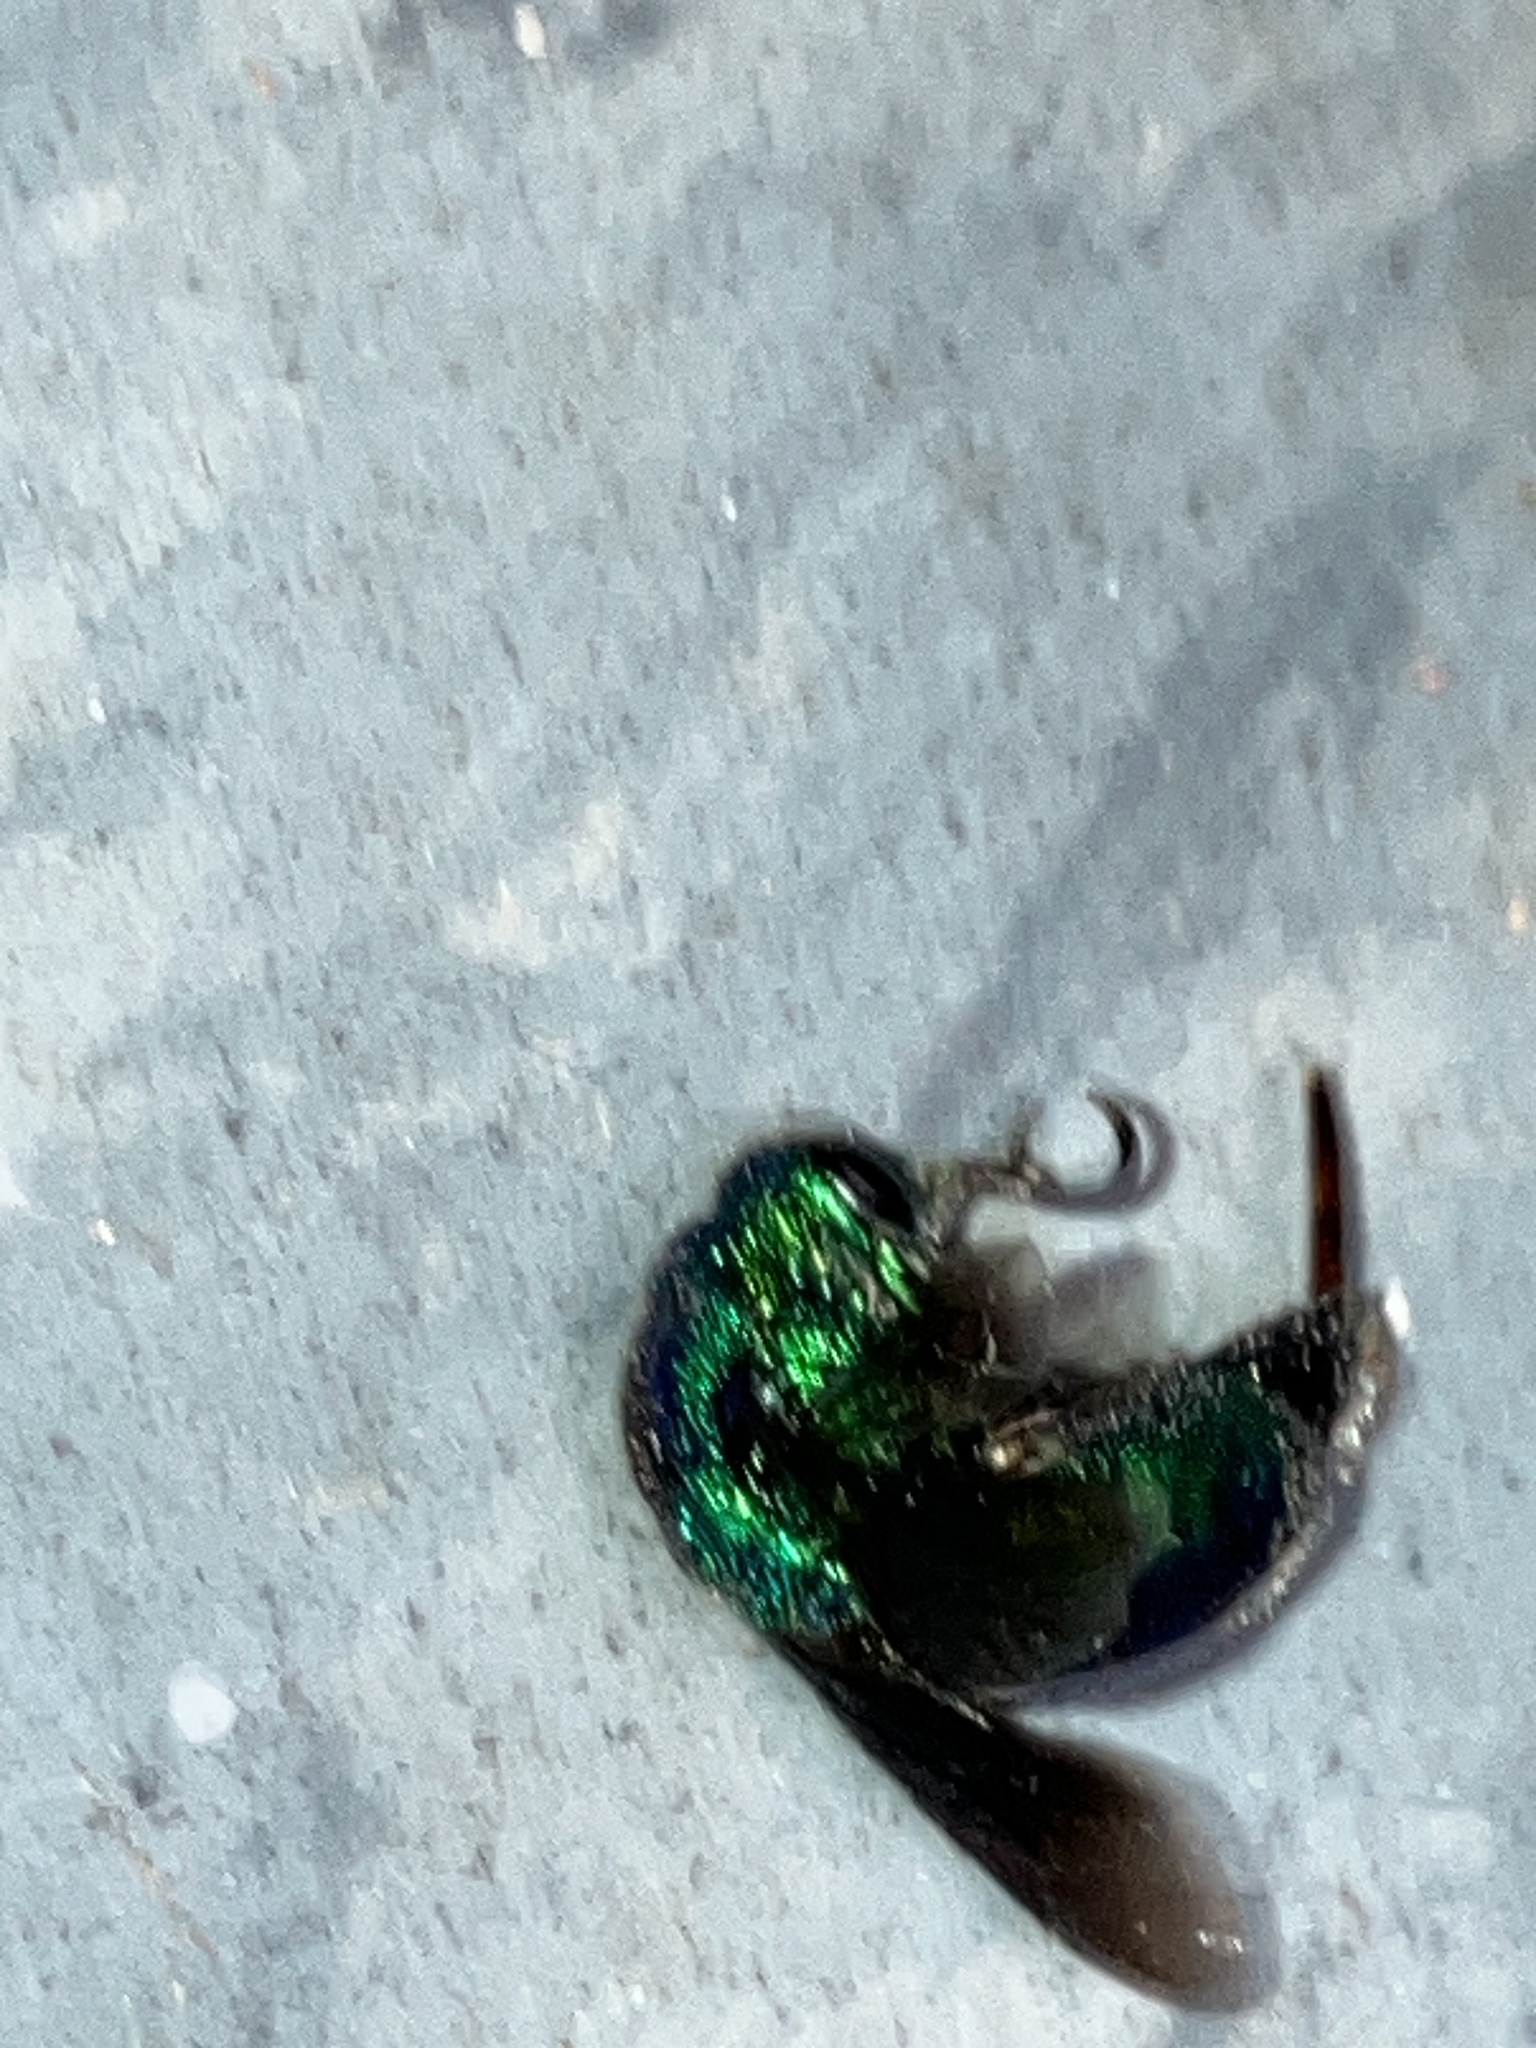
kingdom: Animalia
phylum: Arthropoda
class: Insecta
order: Hymenoptera
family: Chrysididae
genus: Chrysis
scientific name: Chrysis angolensis
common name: Cuckoo wasp
